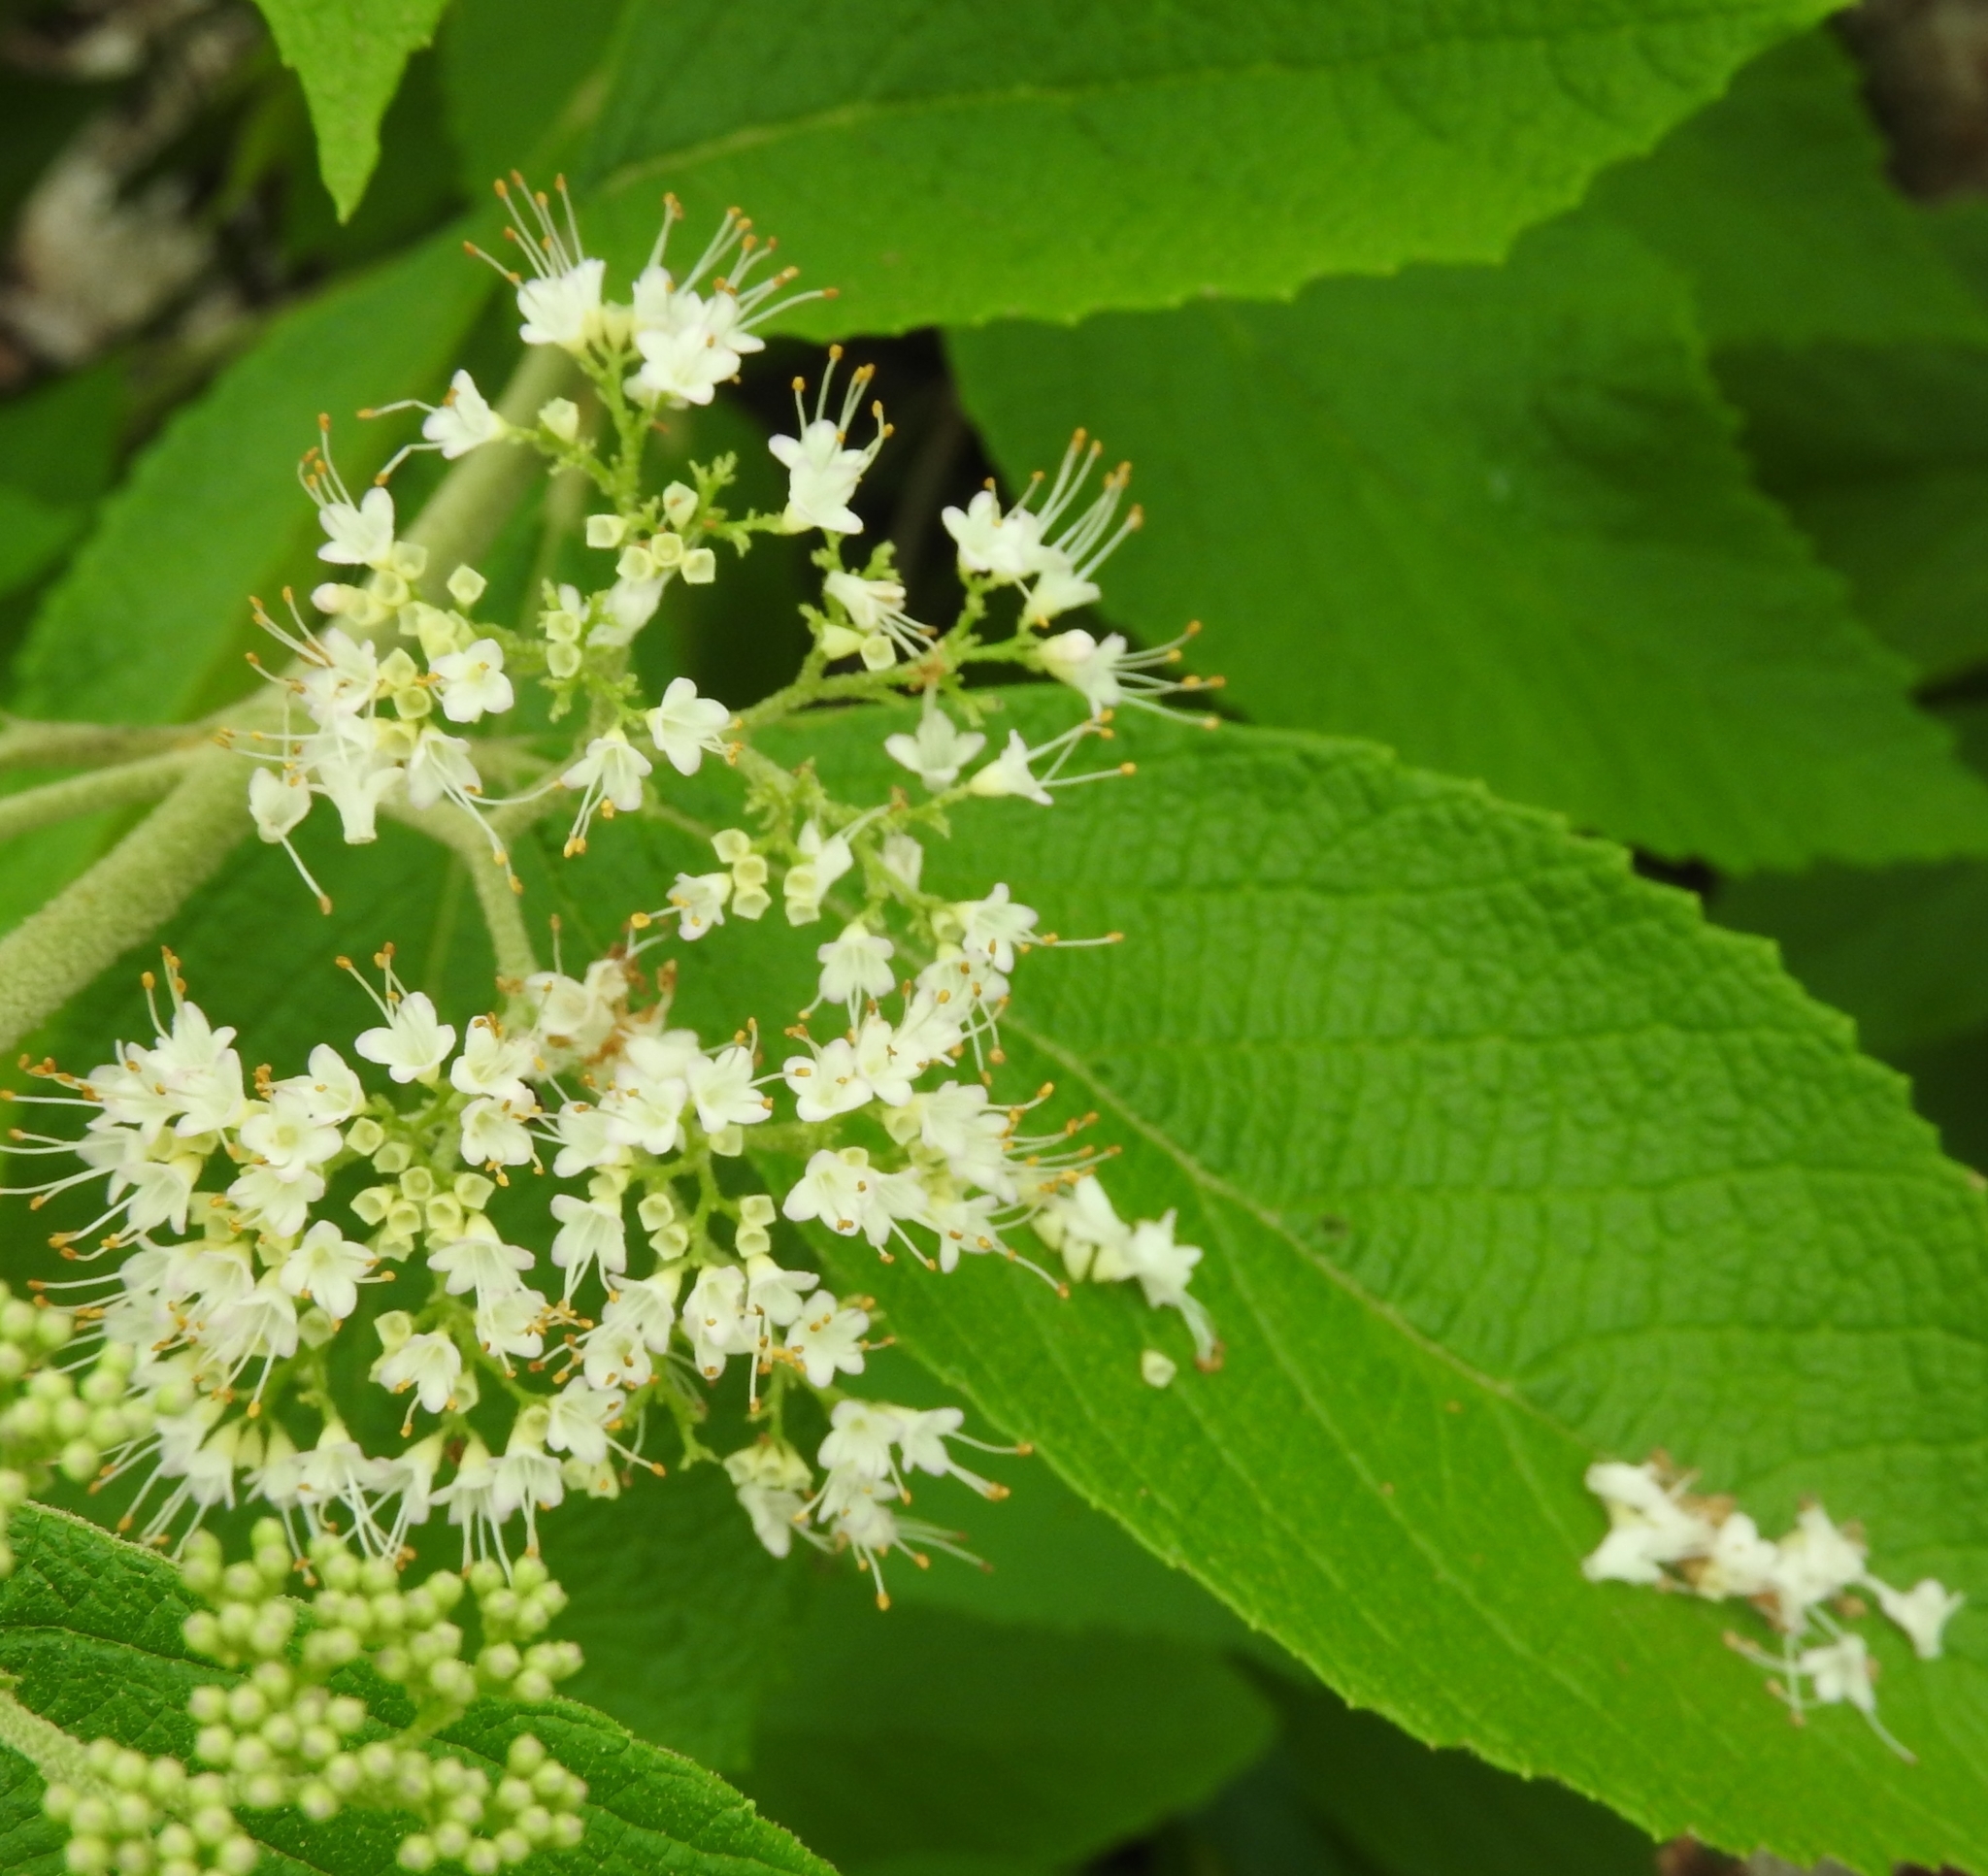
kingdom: Plantae
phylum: Tracheophyta
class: Magnoliopsida
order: Lamiales
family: Lamiaceae
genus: Callicarpa
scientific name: Callicarpa acuminata
